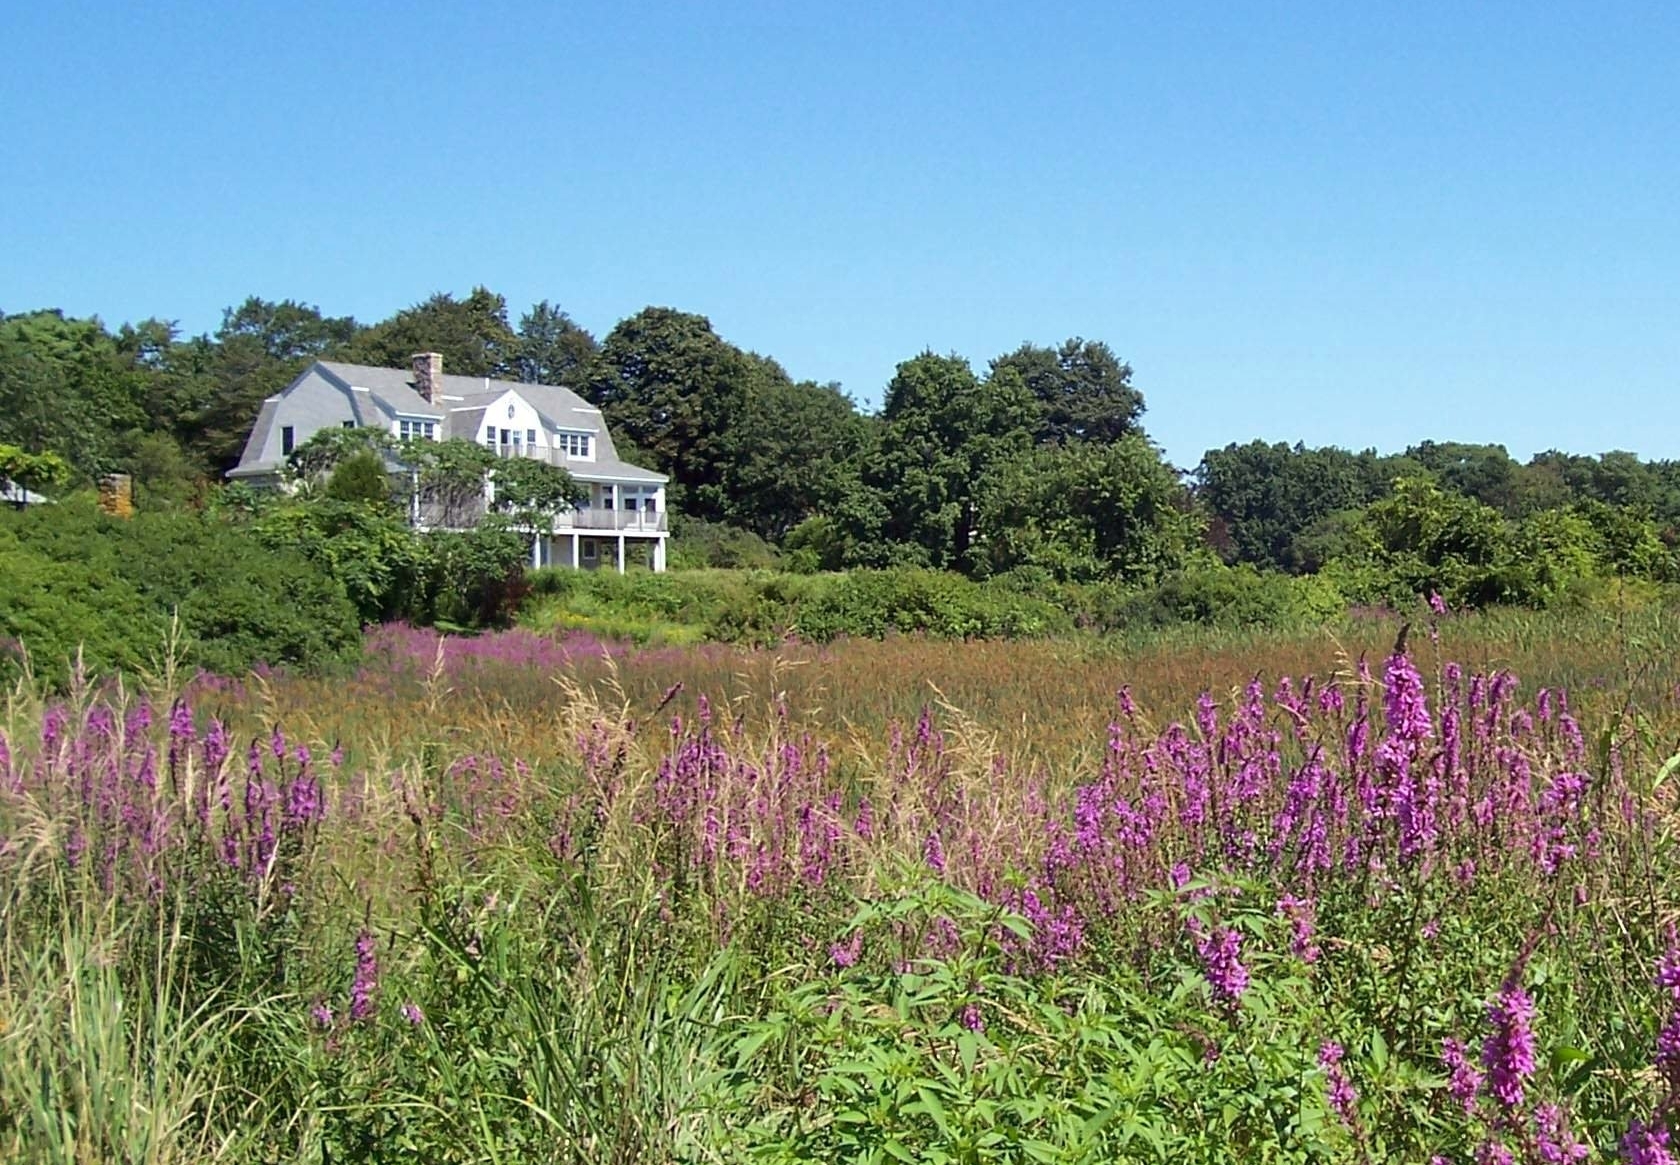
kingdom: Plantae
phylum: Tracheophyta
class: Magnoliopsida
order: Myrtales
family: Lythraceae
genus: Lythrum
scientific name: Lythrum salicaria
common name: Purple loosestrife
